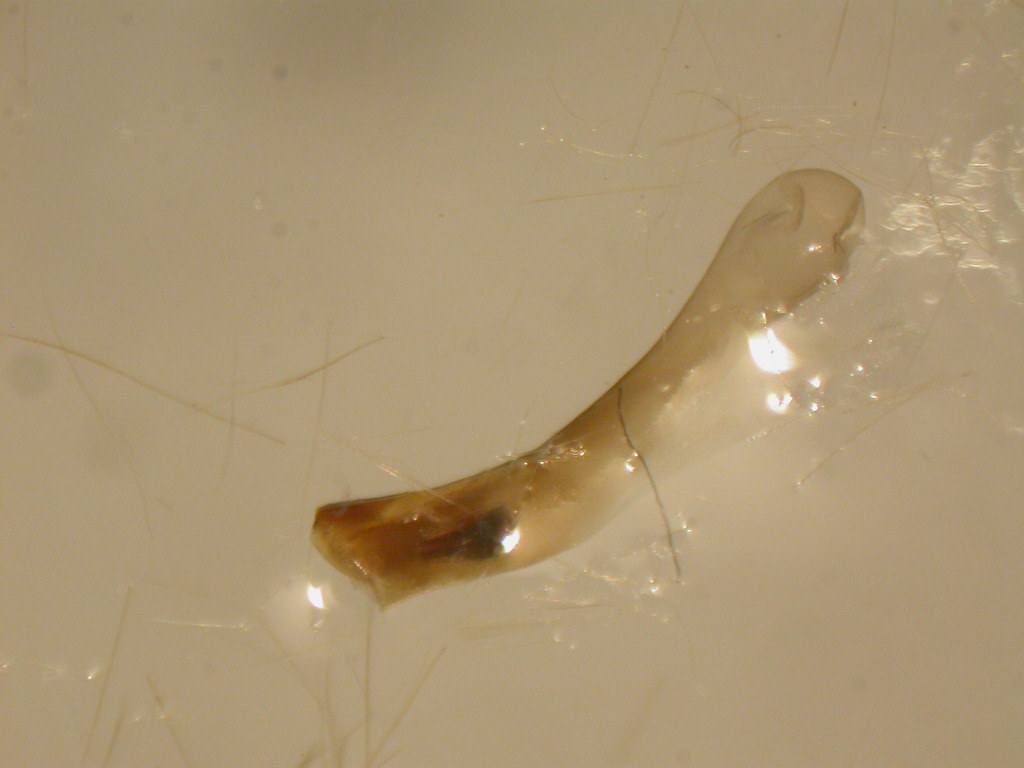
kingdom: Animalia
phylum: Arthropoda
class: Insecta
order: Lepidoptera
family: Noctuidae
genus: Amphipoea
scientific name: Amphipoea fucosa
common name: Saltern ear
